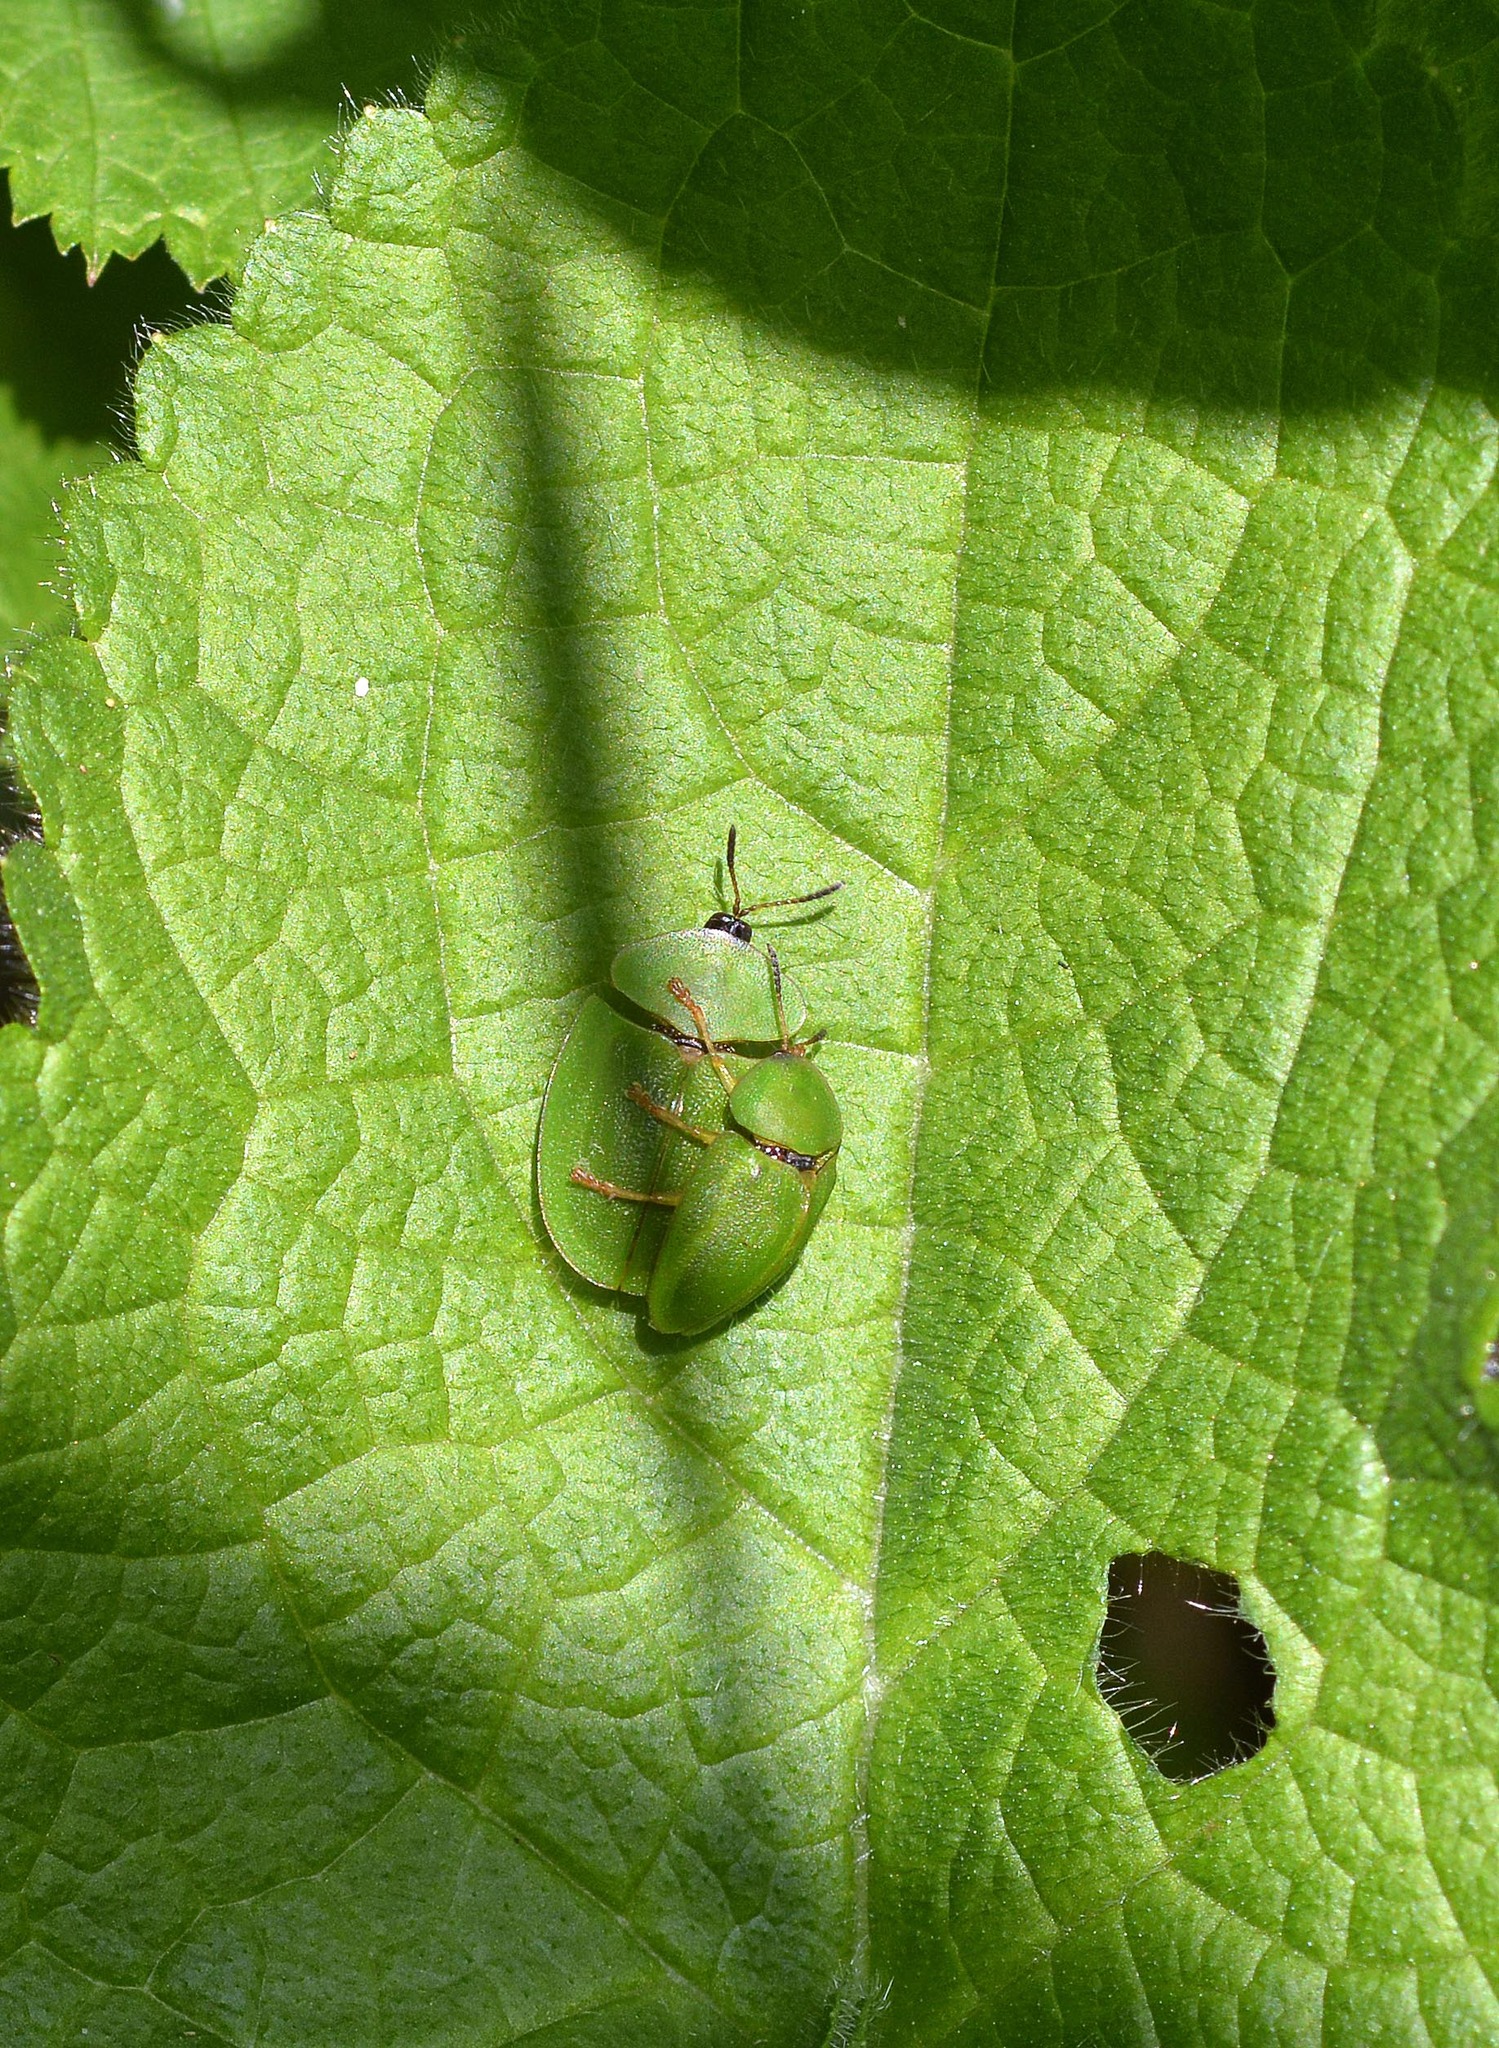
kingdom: Animalia
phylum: Arthropoda
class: Insecta
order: Coleoptera
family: Chrysomelidae
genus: Cassida
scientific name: Cassida viridis
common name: Green tortoise beetle
